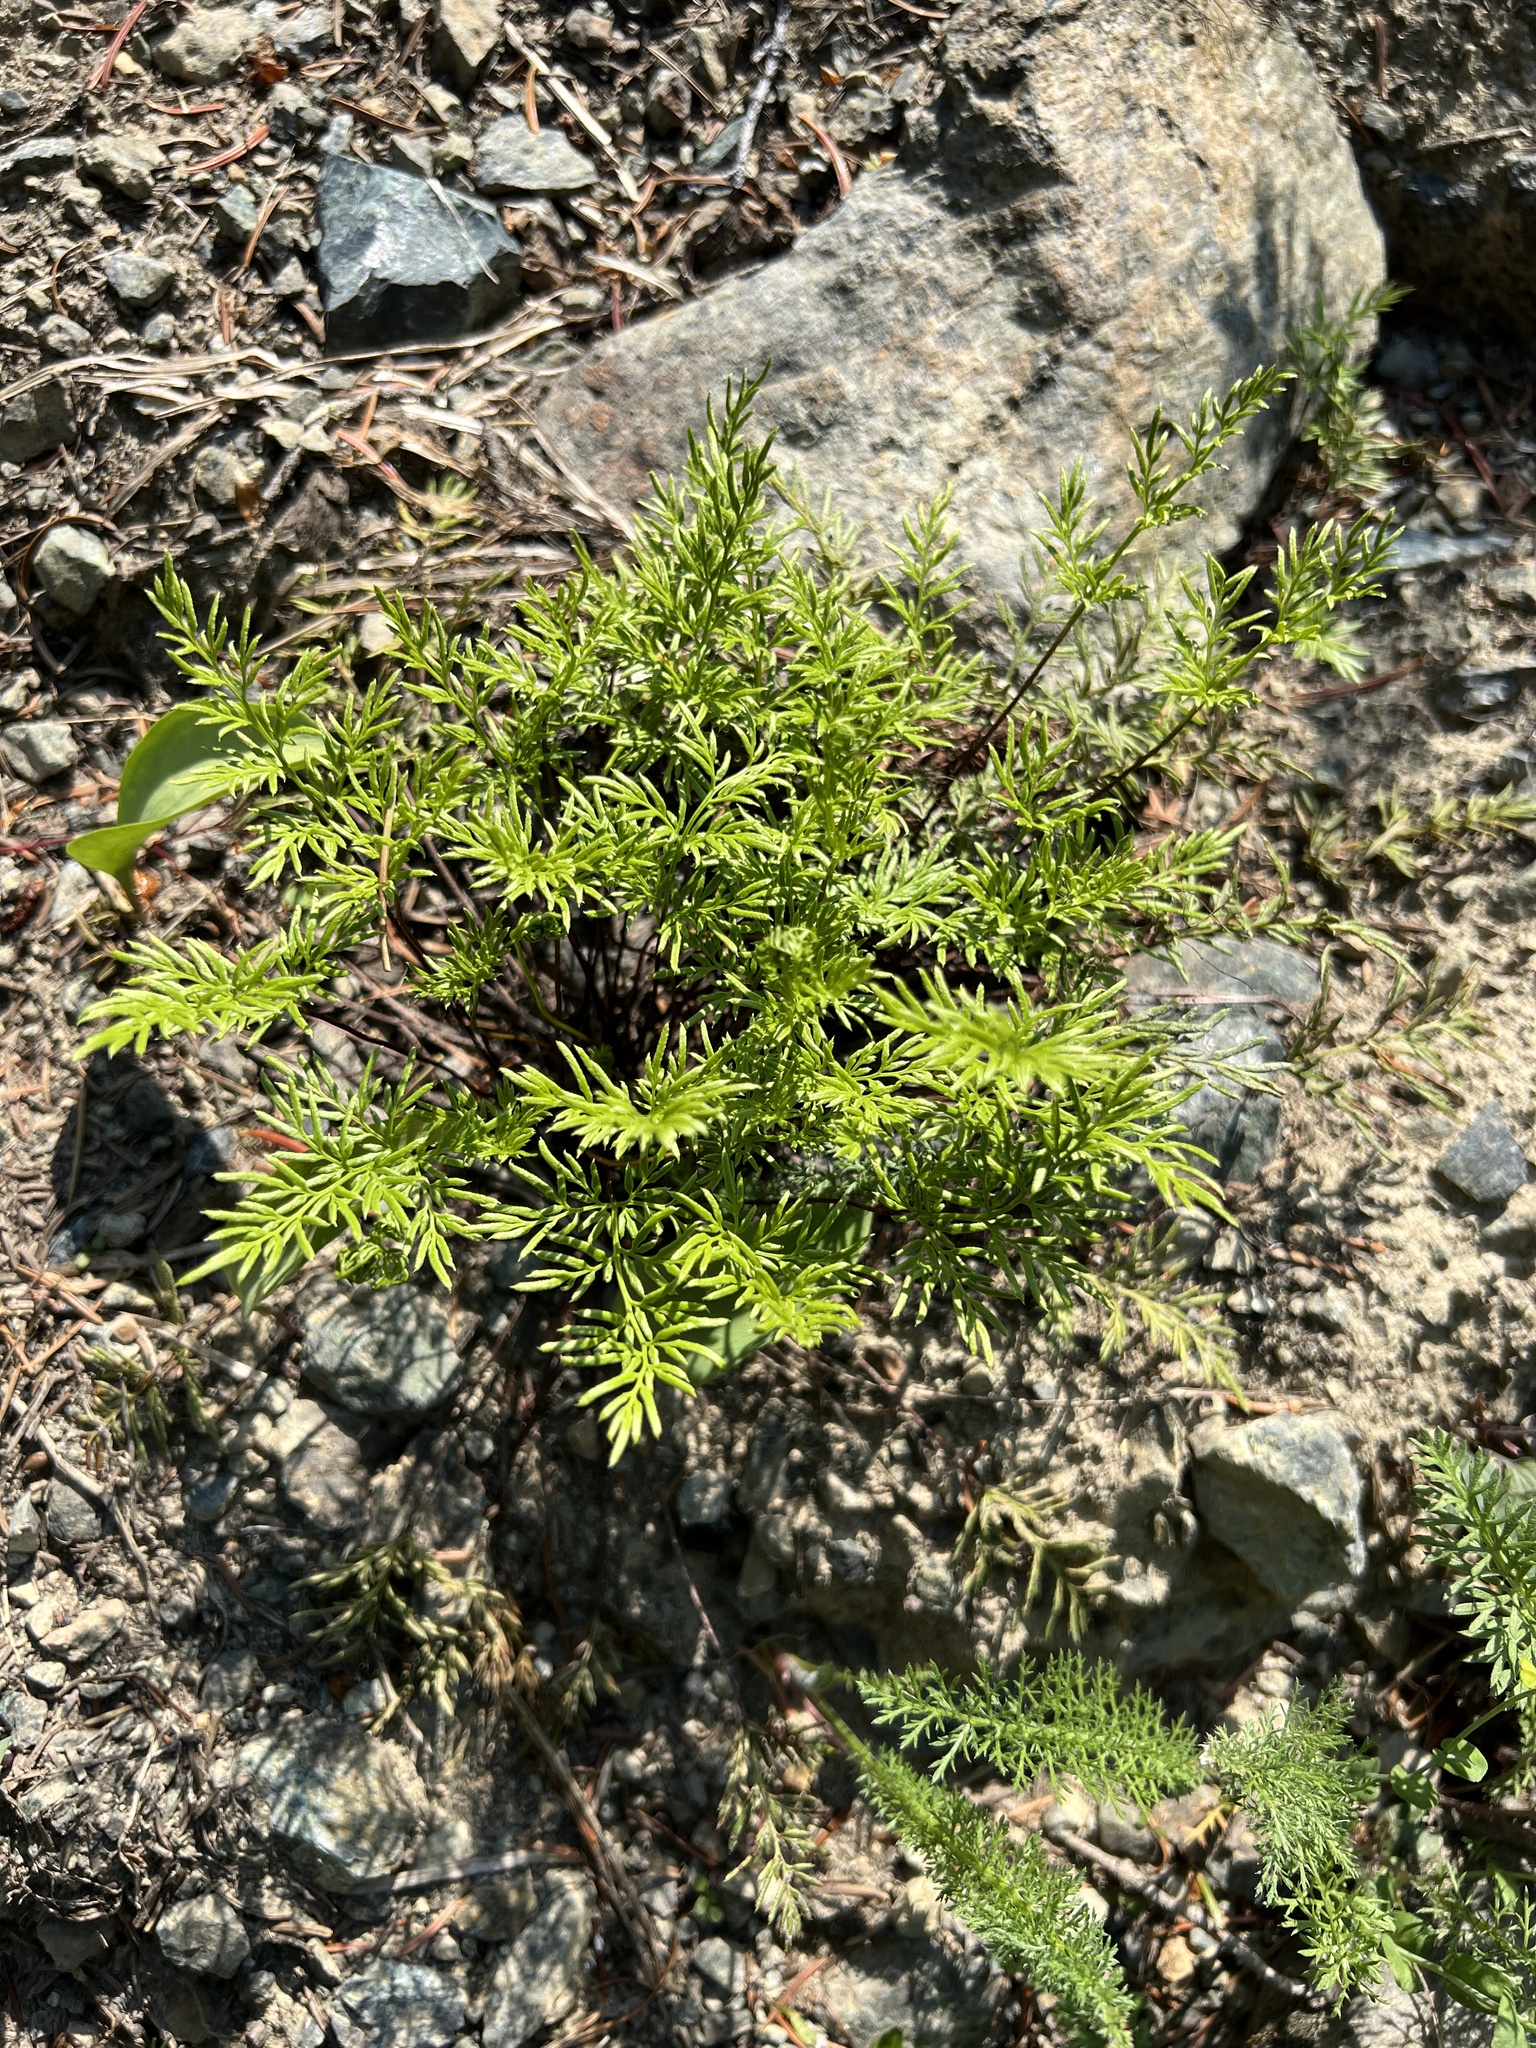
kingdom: Plantae
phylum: Tracheophyta
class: Polypodiopsida
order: Polypodiales
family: Pteridaceae
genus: Aspidotis
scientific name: Aspidotis densa
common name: Indian's dream
